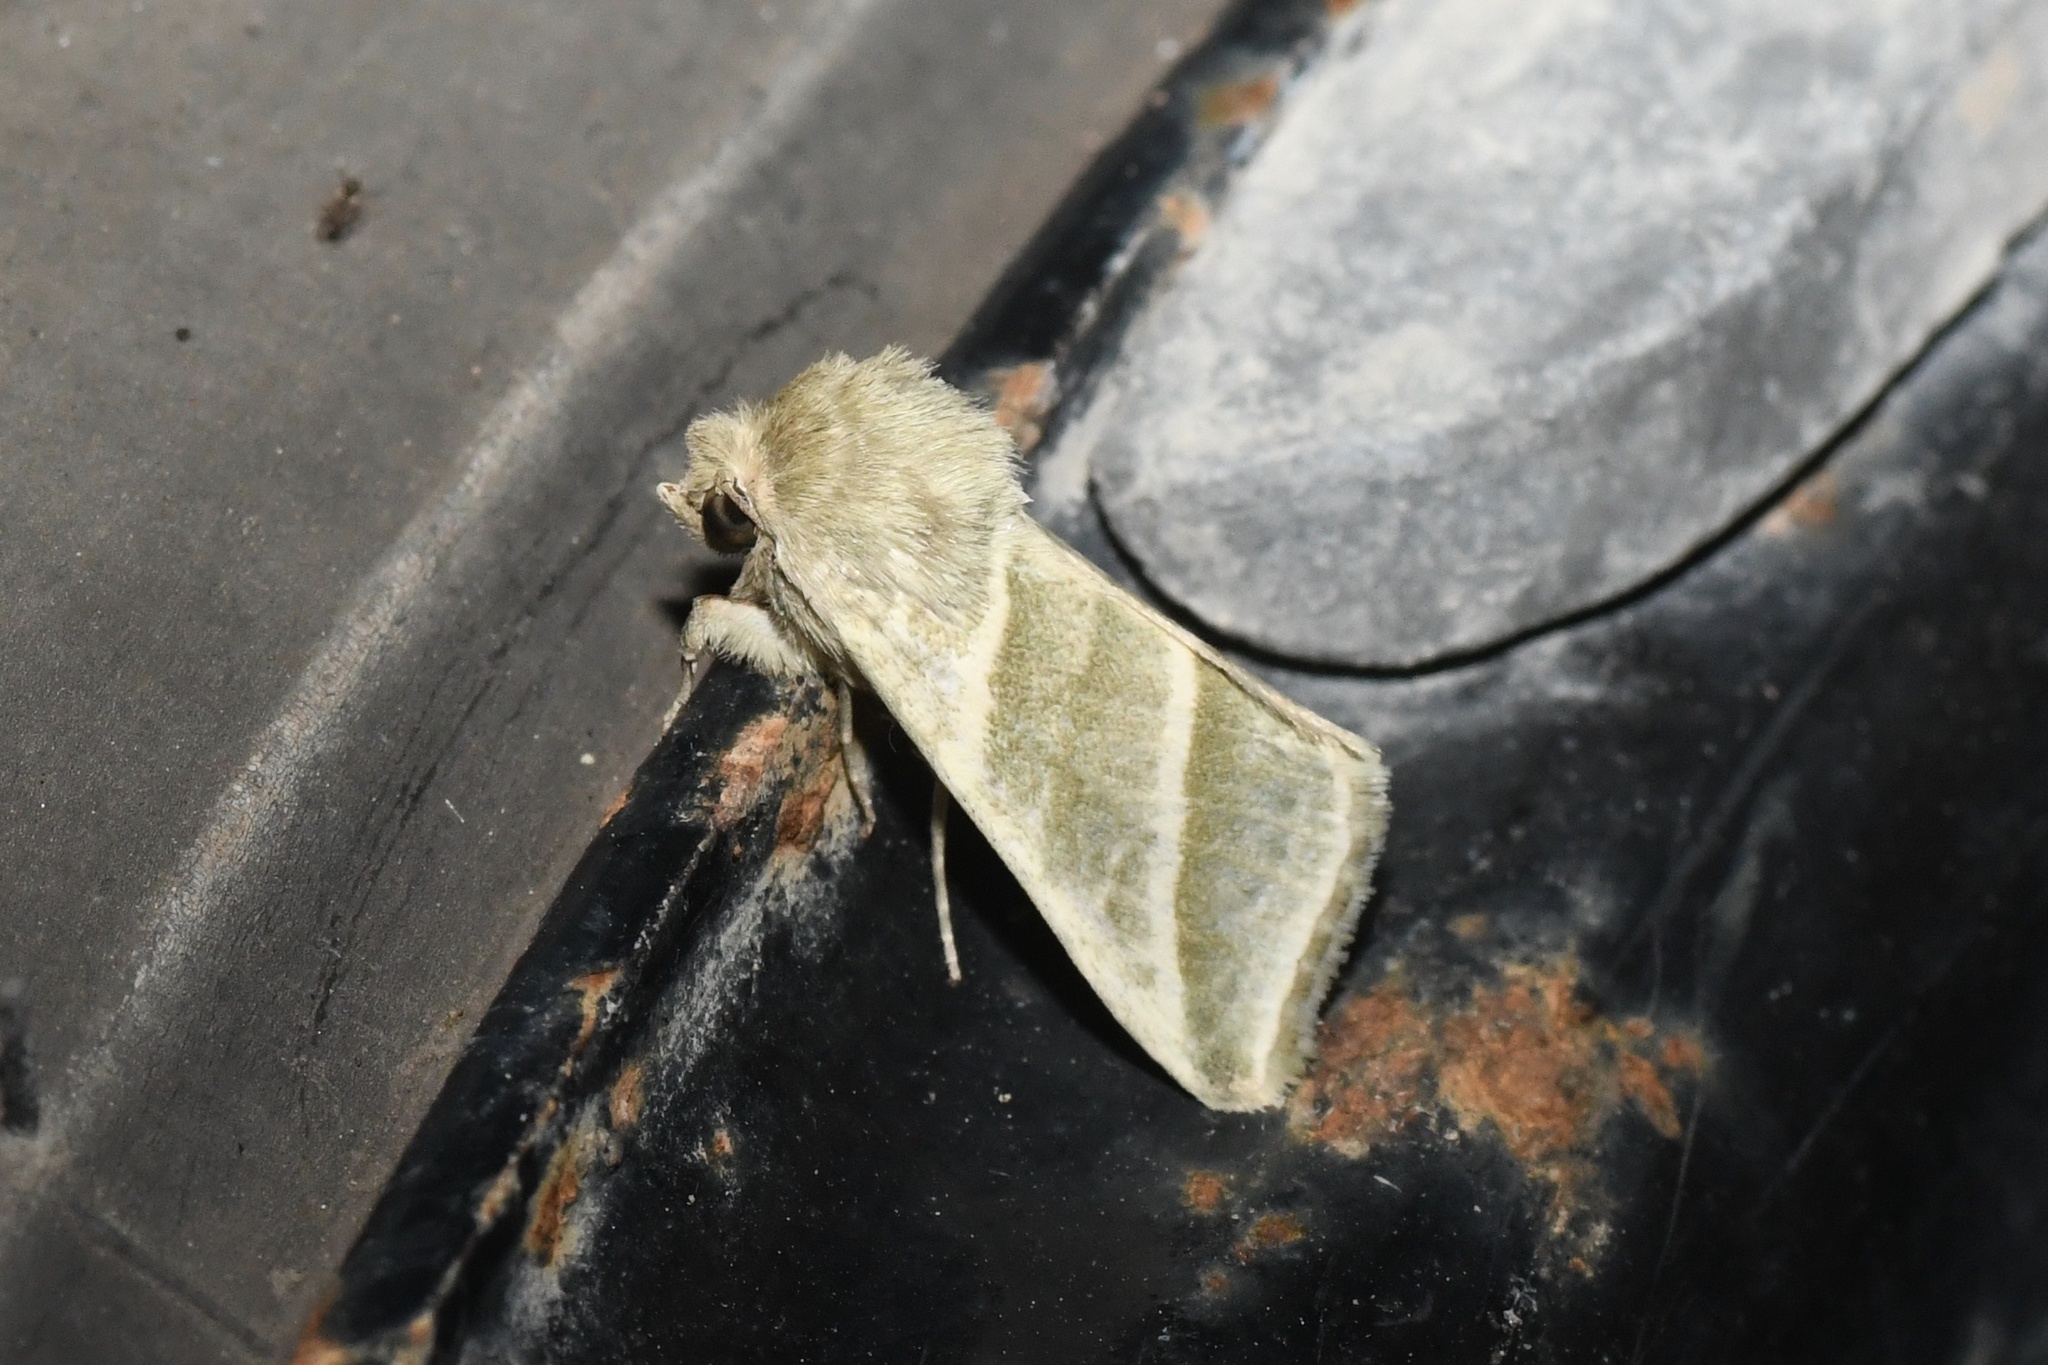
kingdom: Animalia
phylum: Arthropoda
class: Insecta
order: Lepidoptera
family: Noctuidae
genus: Chloridea
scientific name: Chloridea subflexa
